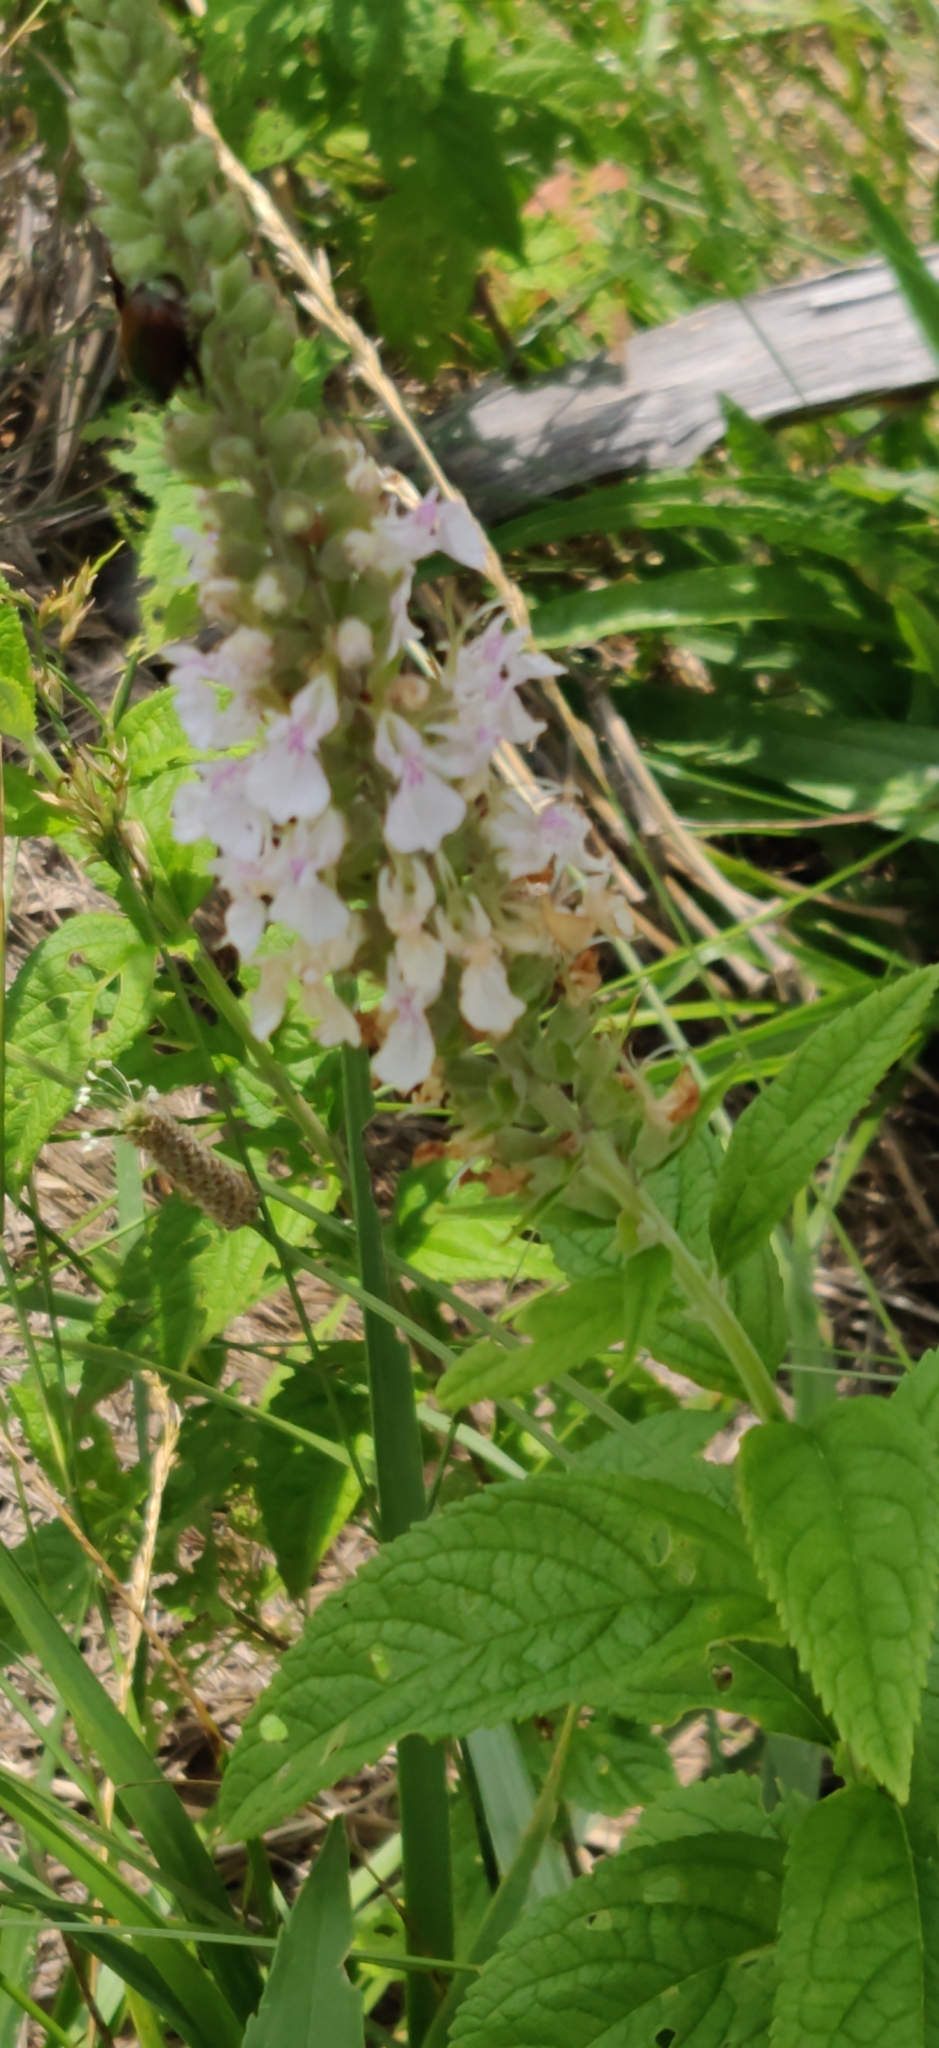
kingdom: Plantae
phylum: Tracheophyta
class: Magnoliopsida
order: Lamiales
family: Lamiaceae
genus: Teucrium
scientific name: Teucrium canadense
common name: American germander
